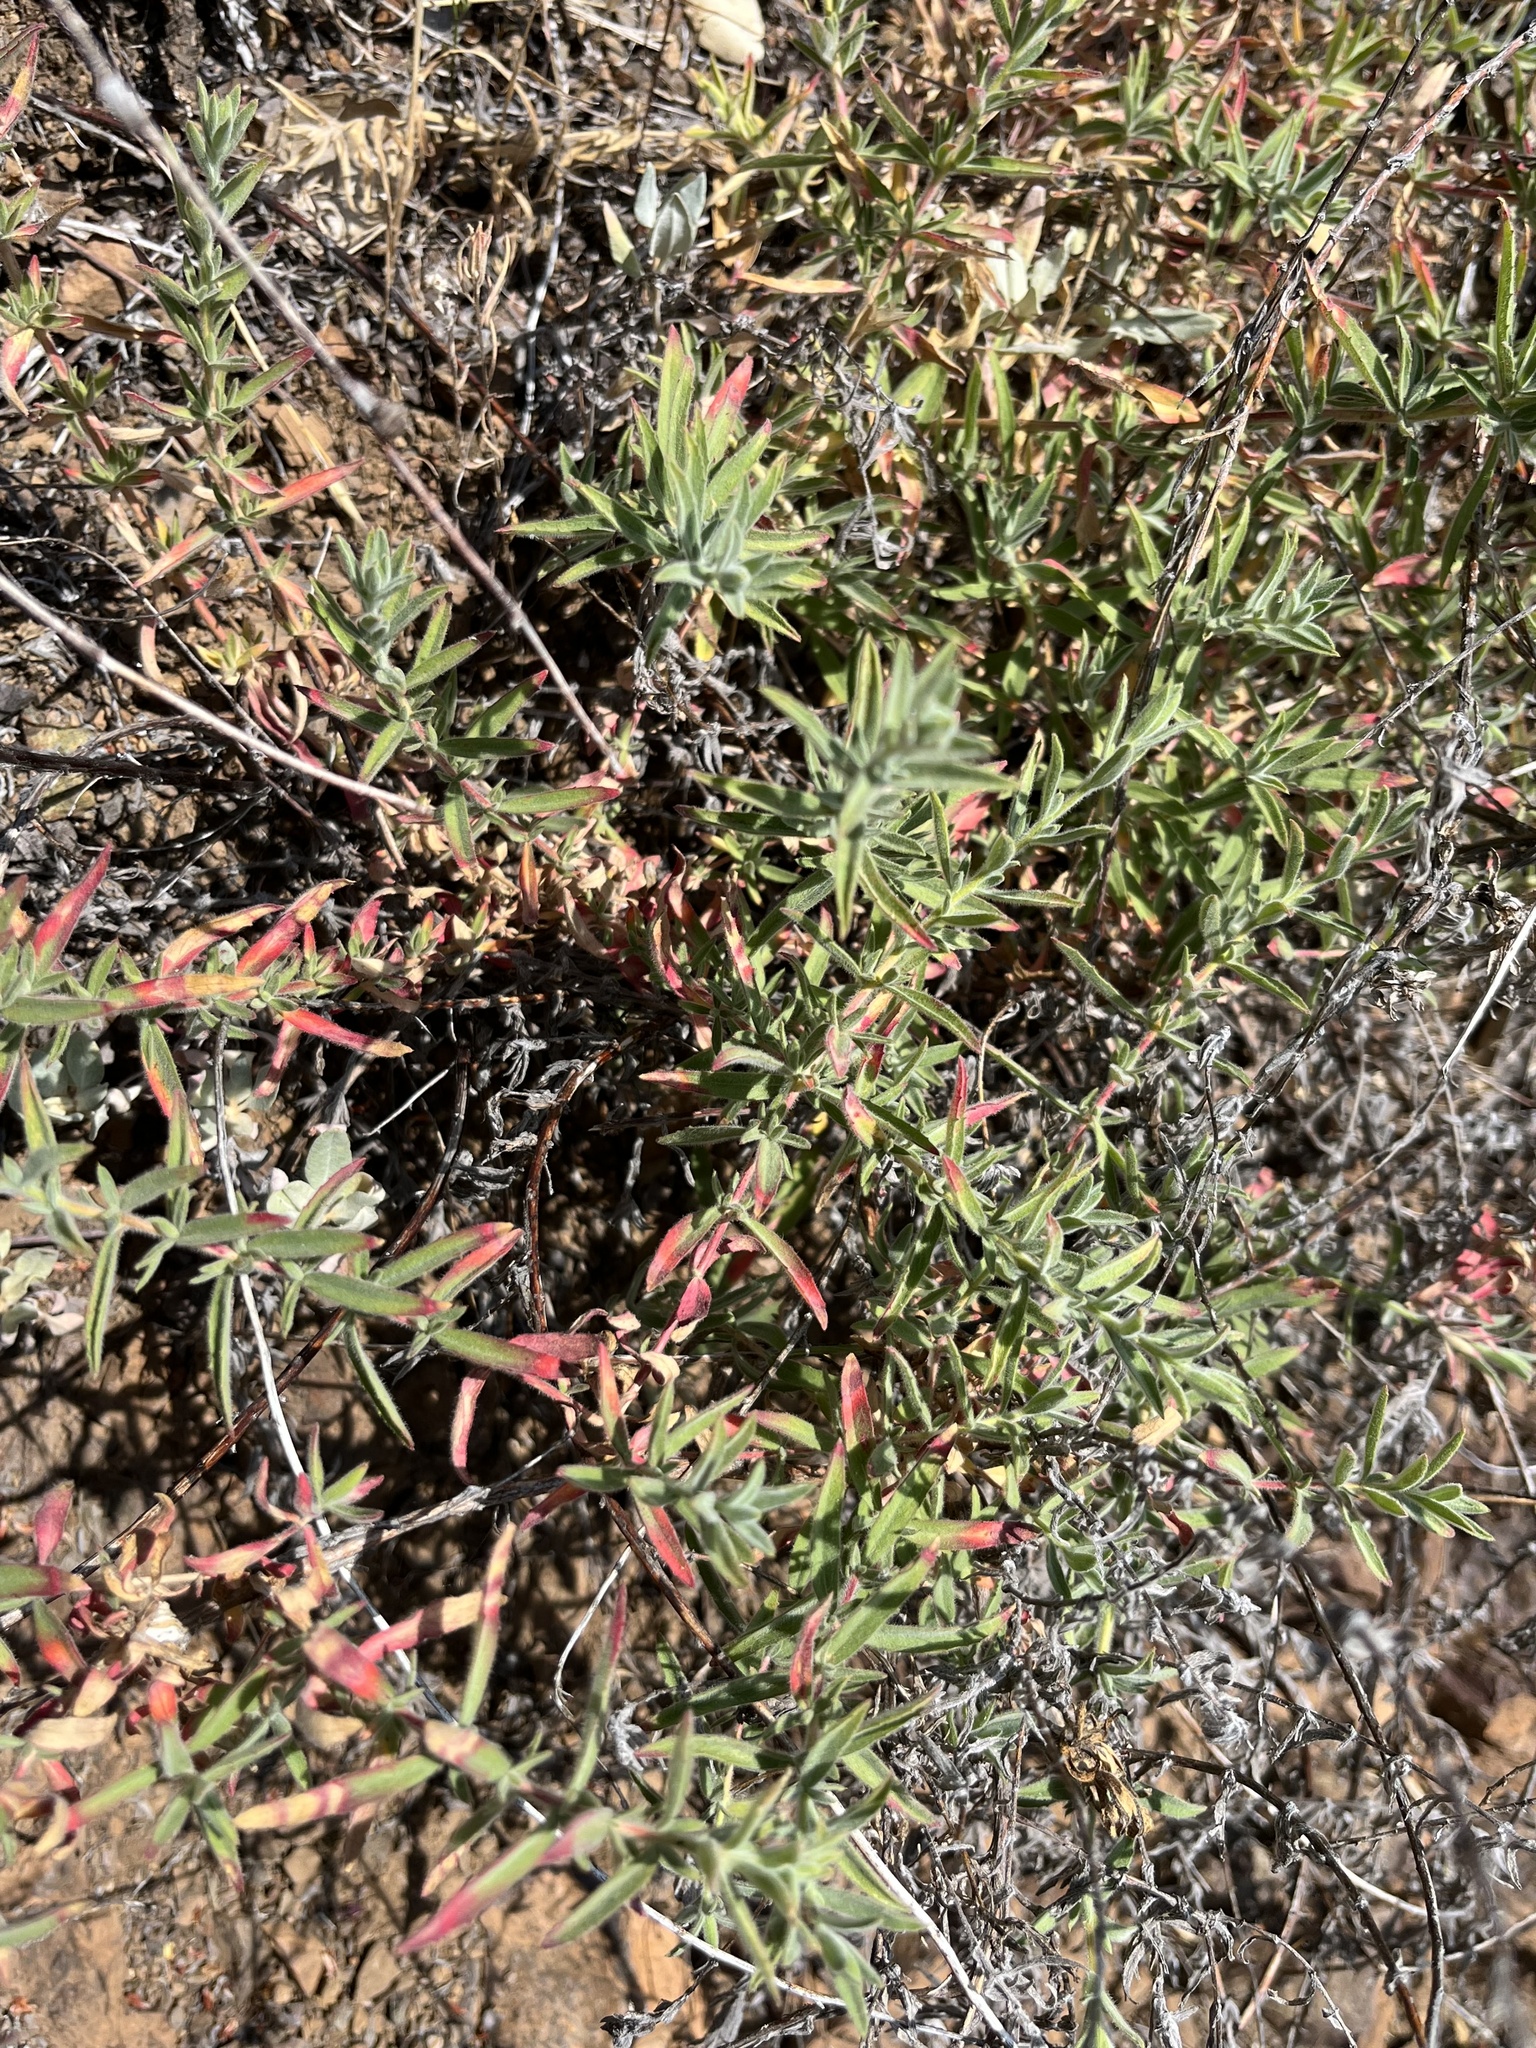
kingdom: Plantae
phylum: Tracheophyta
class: Magnoliopsida
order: Myrtales
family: Onagraceae
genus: Epilobium
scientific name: Epilobium canum
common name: California-fuchsia
